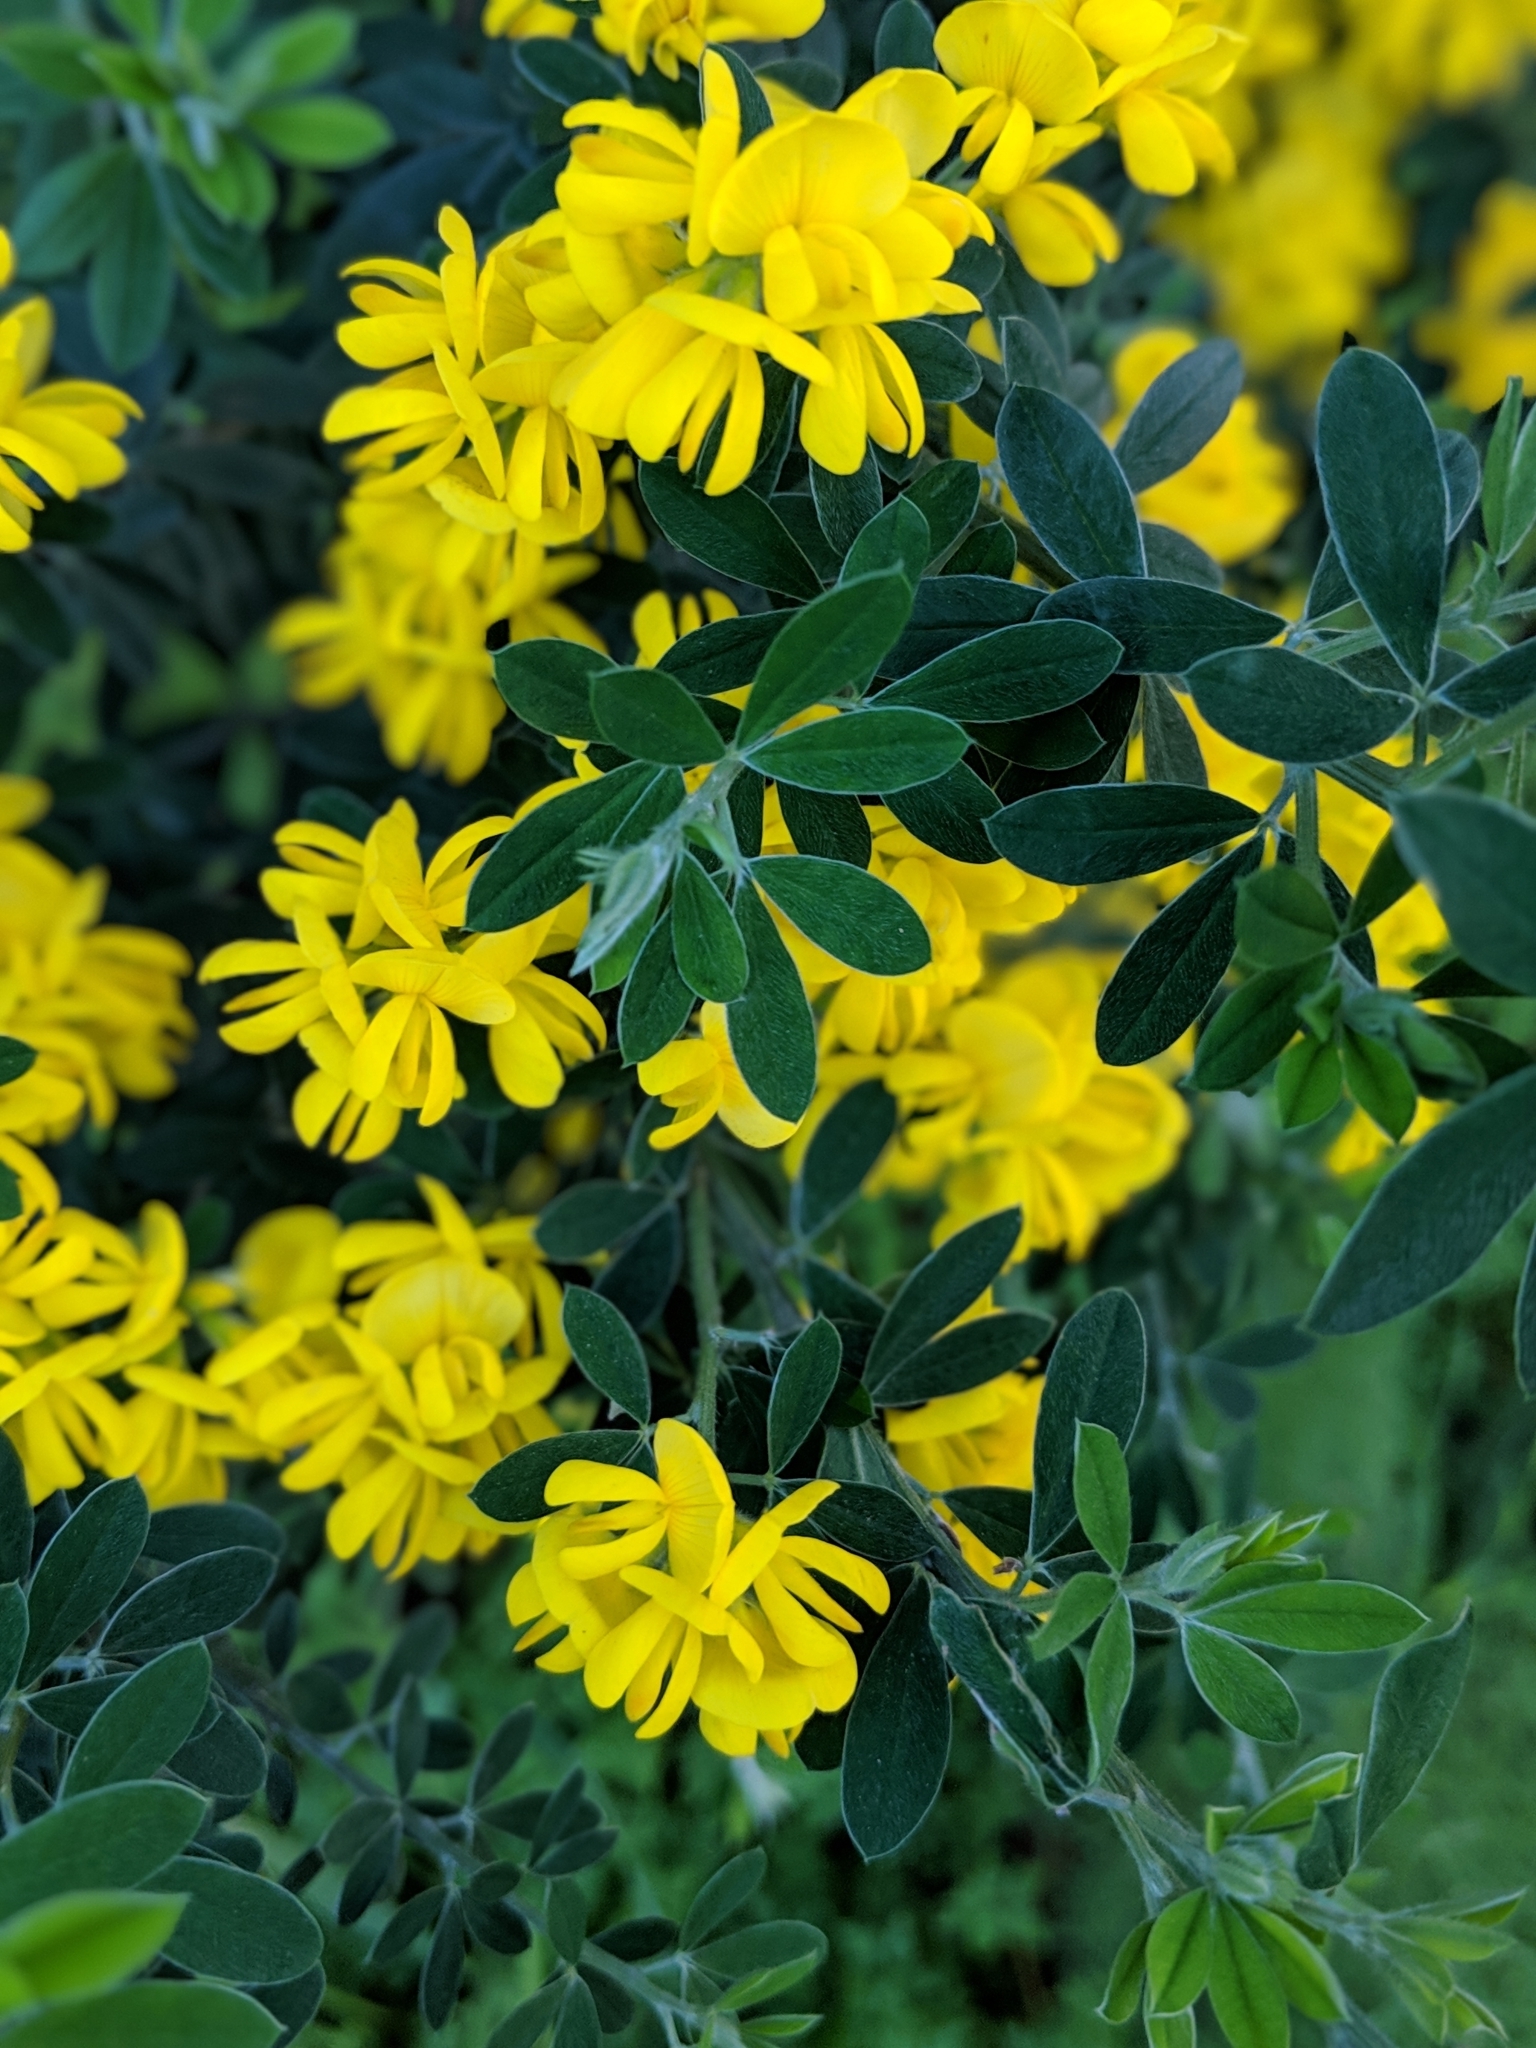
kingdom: Plantae
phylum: Tracheophyta
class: Magnoliopsida
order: Fabales
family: Fabaceae
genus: Genista
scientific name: Genista monspessulana
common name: Montpellier broom
